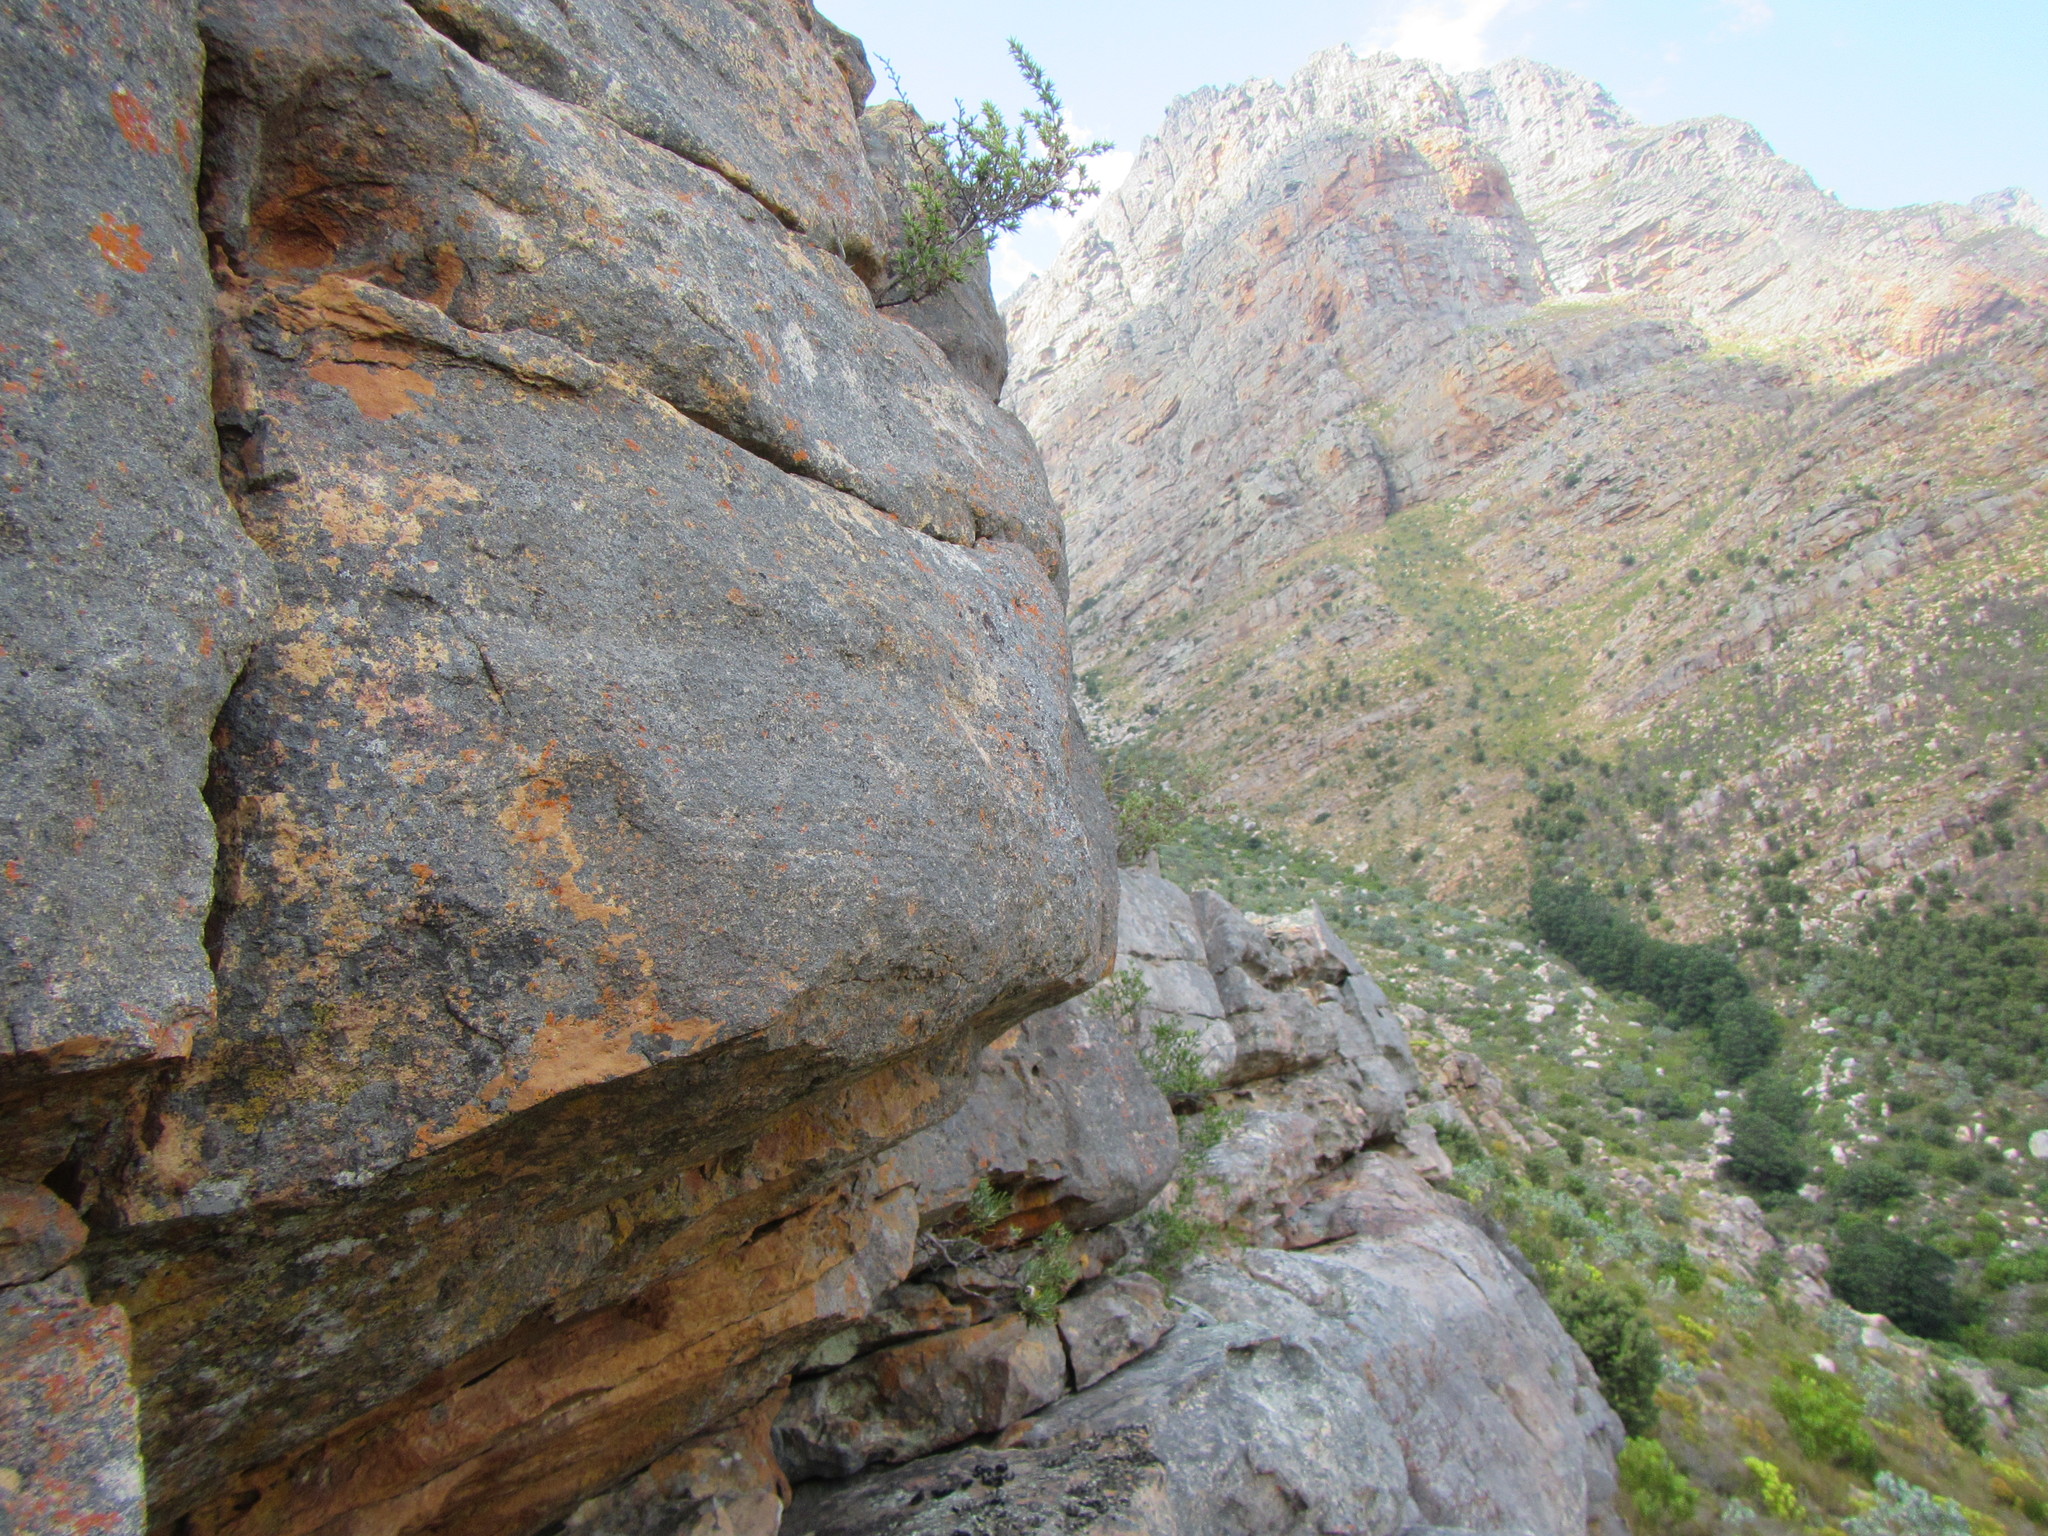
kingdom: Plantae
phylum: Tracheophyta
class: Magnoliopsida
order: Asterales
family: Asteraceae
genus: Hydroidea
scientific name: Hydroidea elsiae
